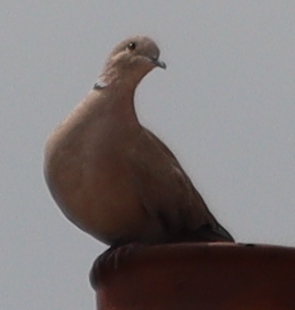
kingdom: Animalia
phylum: Chordata
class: Aves
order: Columbiformes
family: Columbidae
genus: Streptopelia
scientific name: Streptopelia decaocto
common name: Eurasian collared dove
